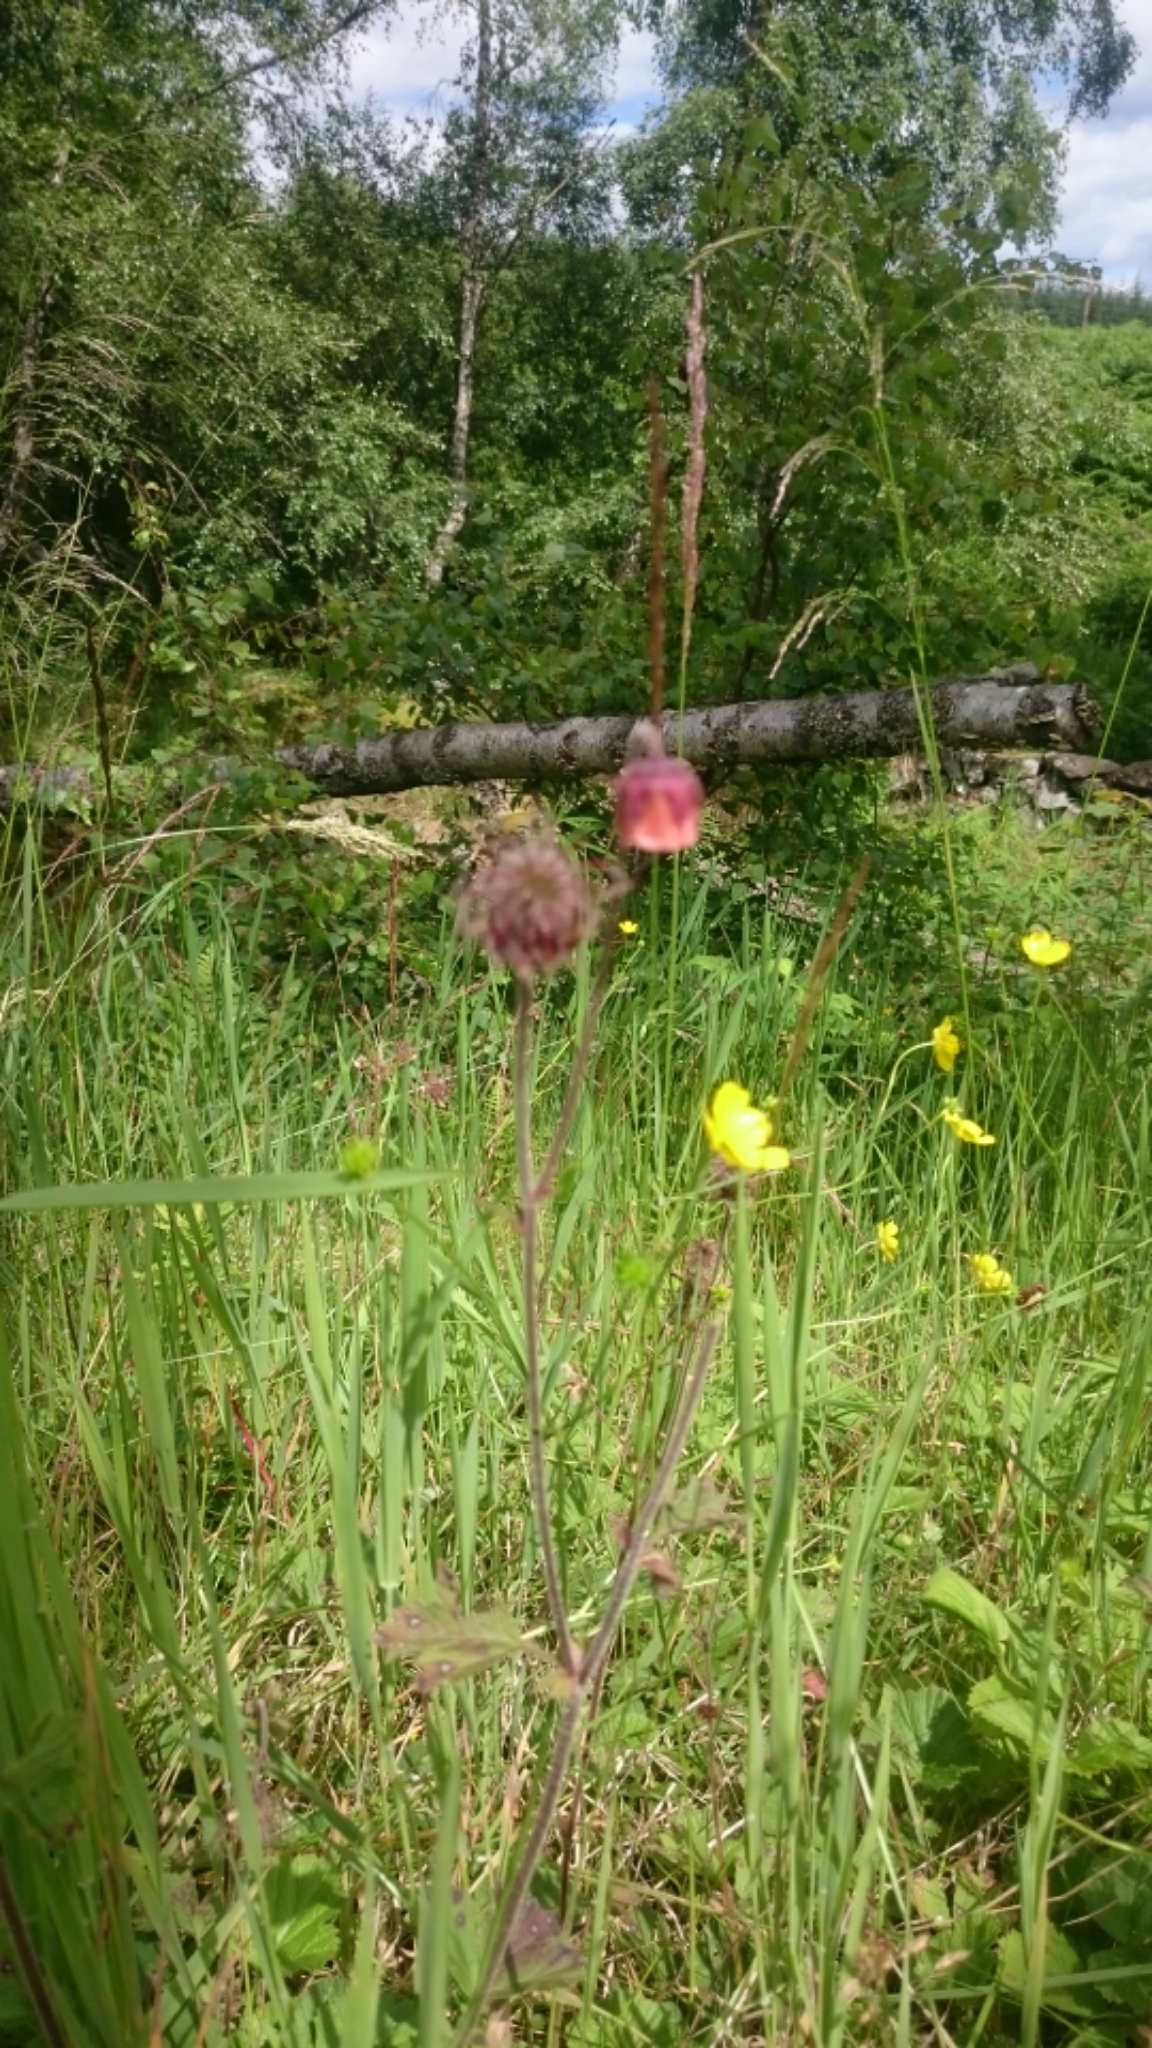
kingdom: Plantae
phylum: Tracheophyta
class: Magnoliopsida
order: Rosales
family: Rosaceae
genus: Geum
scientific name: Geum rivale
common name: Water avens
